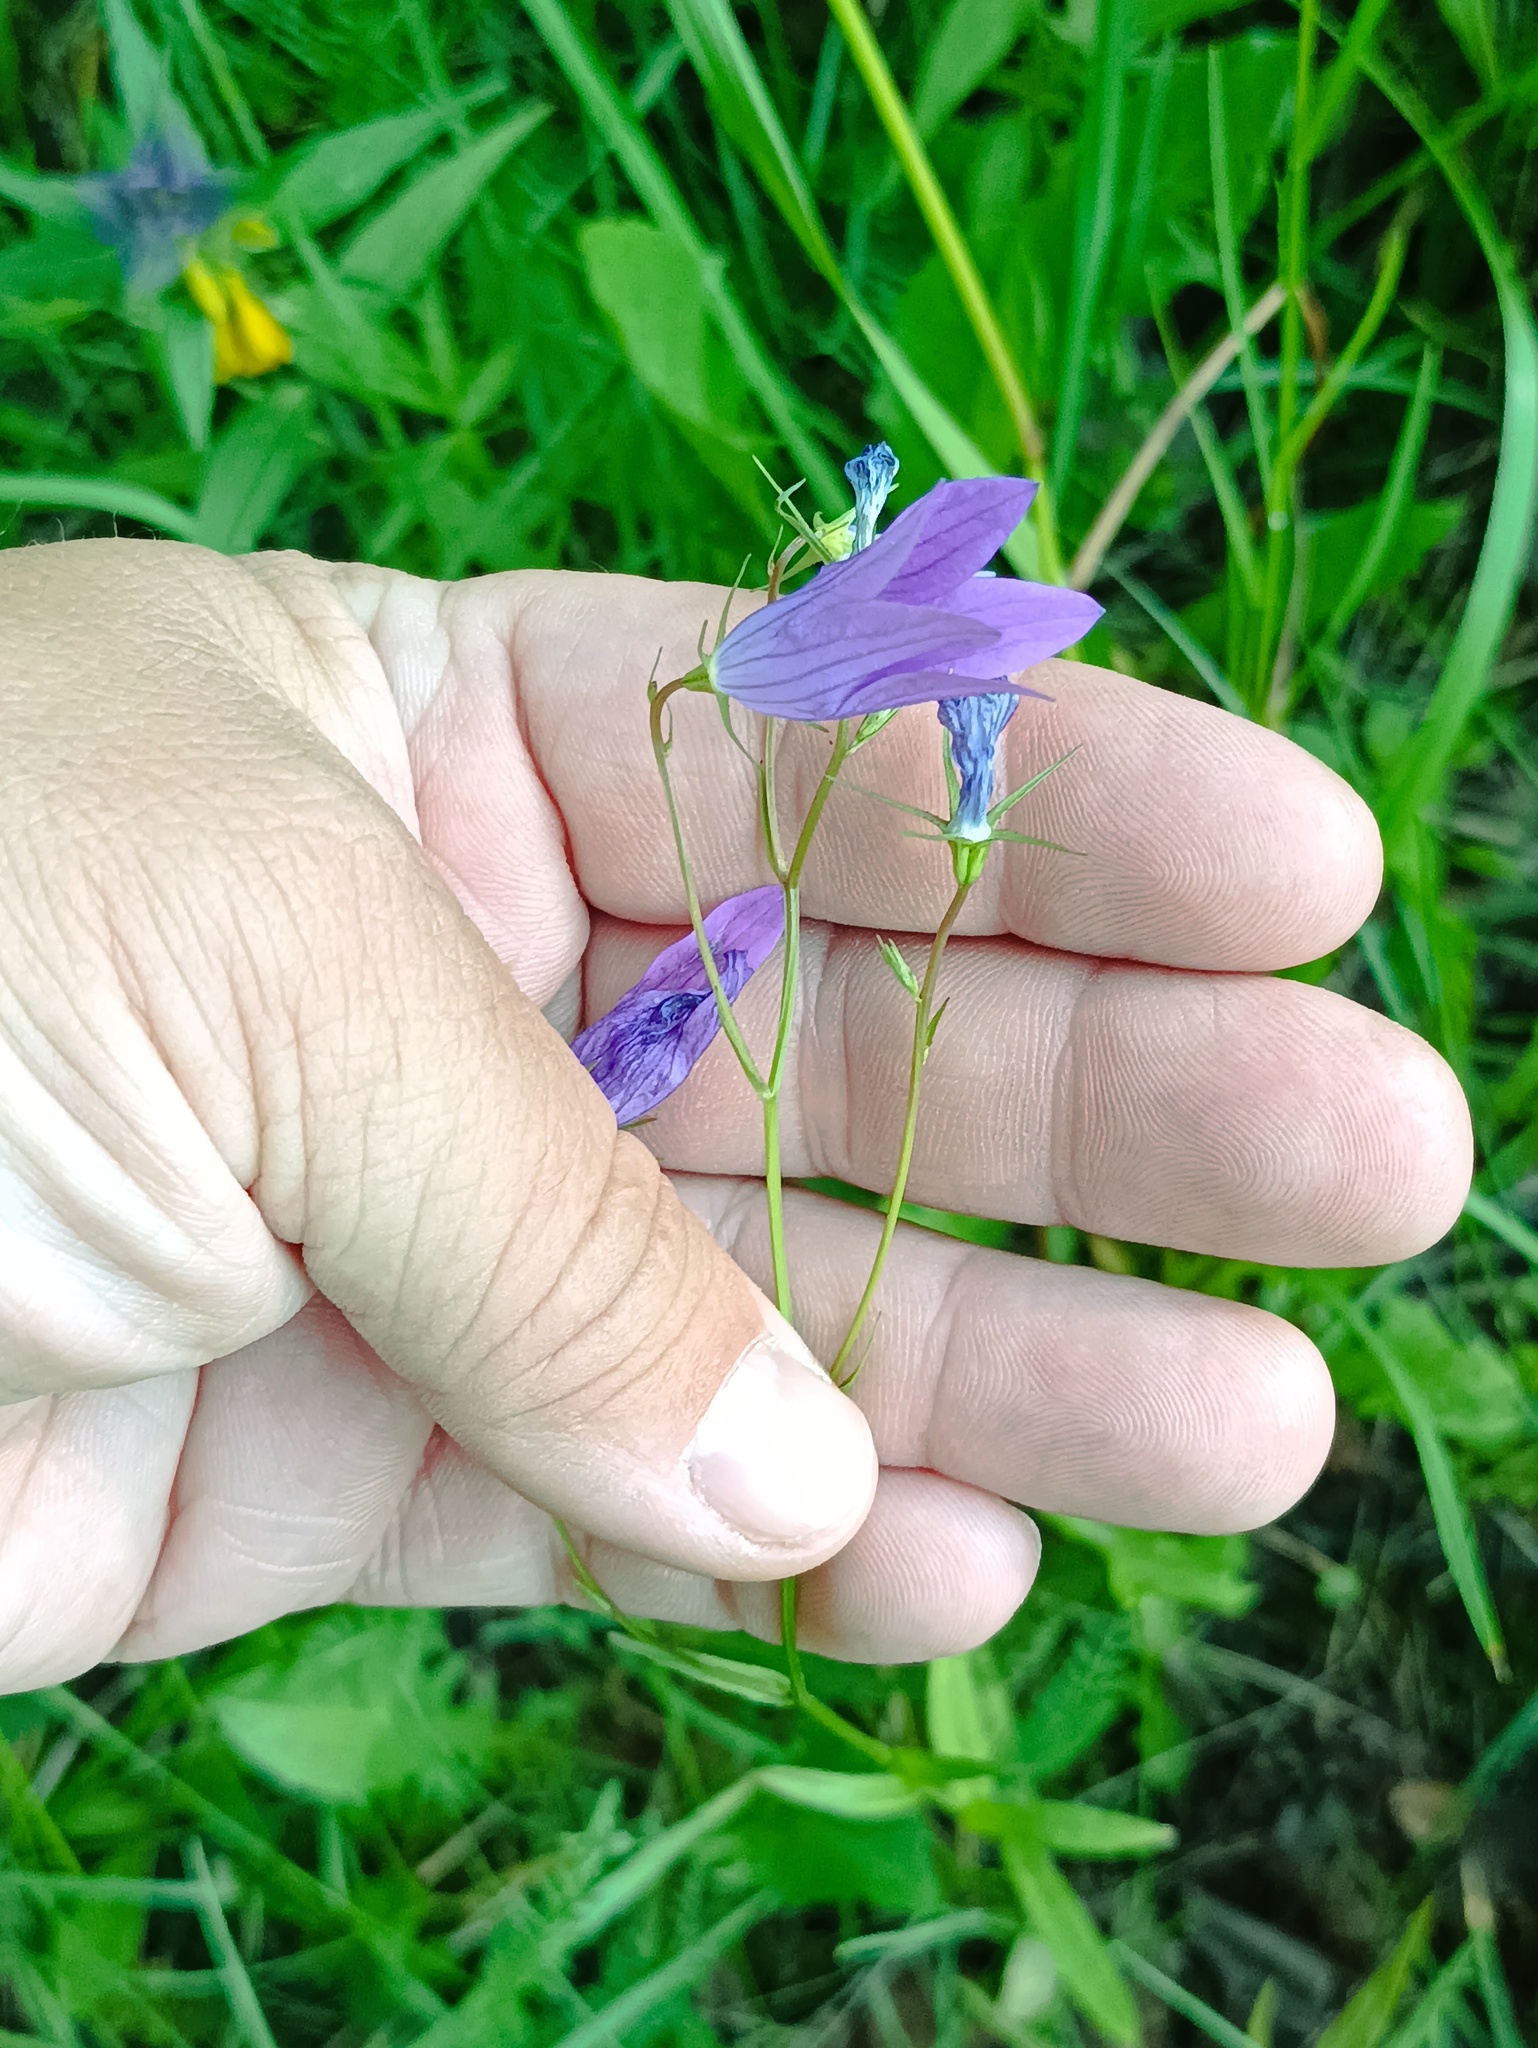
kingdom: Plantae
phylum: Tracheophyta
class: Magnoliopsida
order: Asterales
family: Campanulaceae
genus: Campanula
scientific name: Campanula patula
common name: Spreading bellflower
